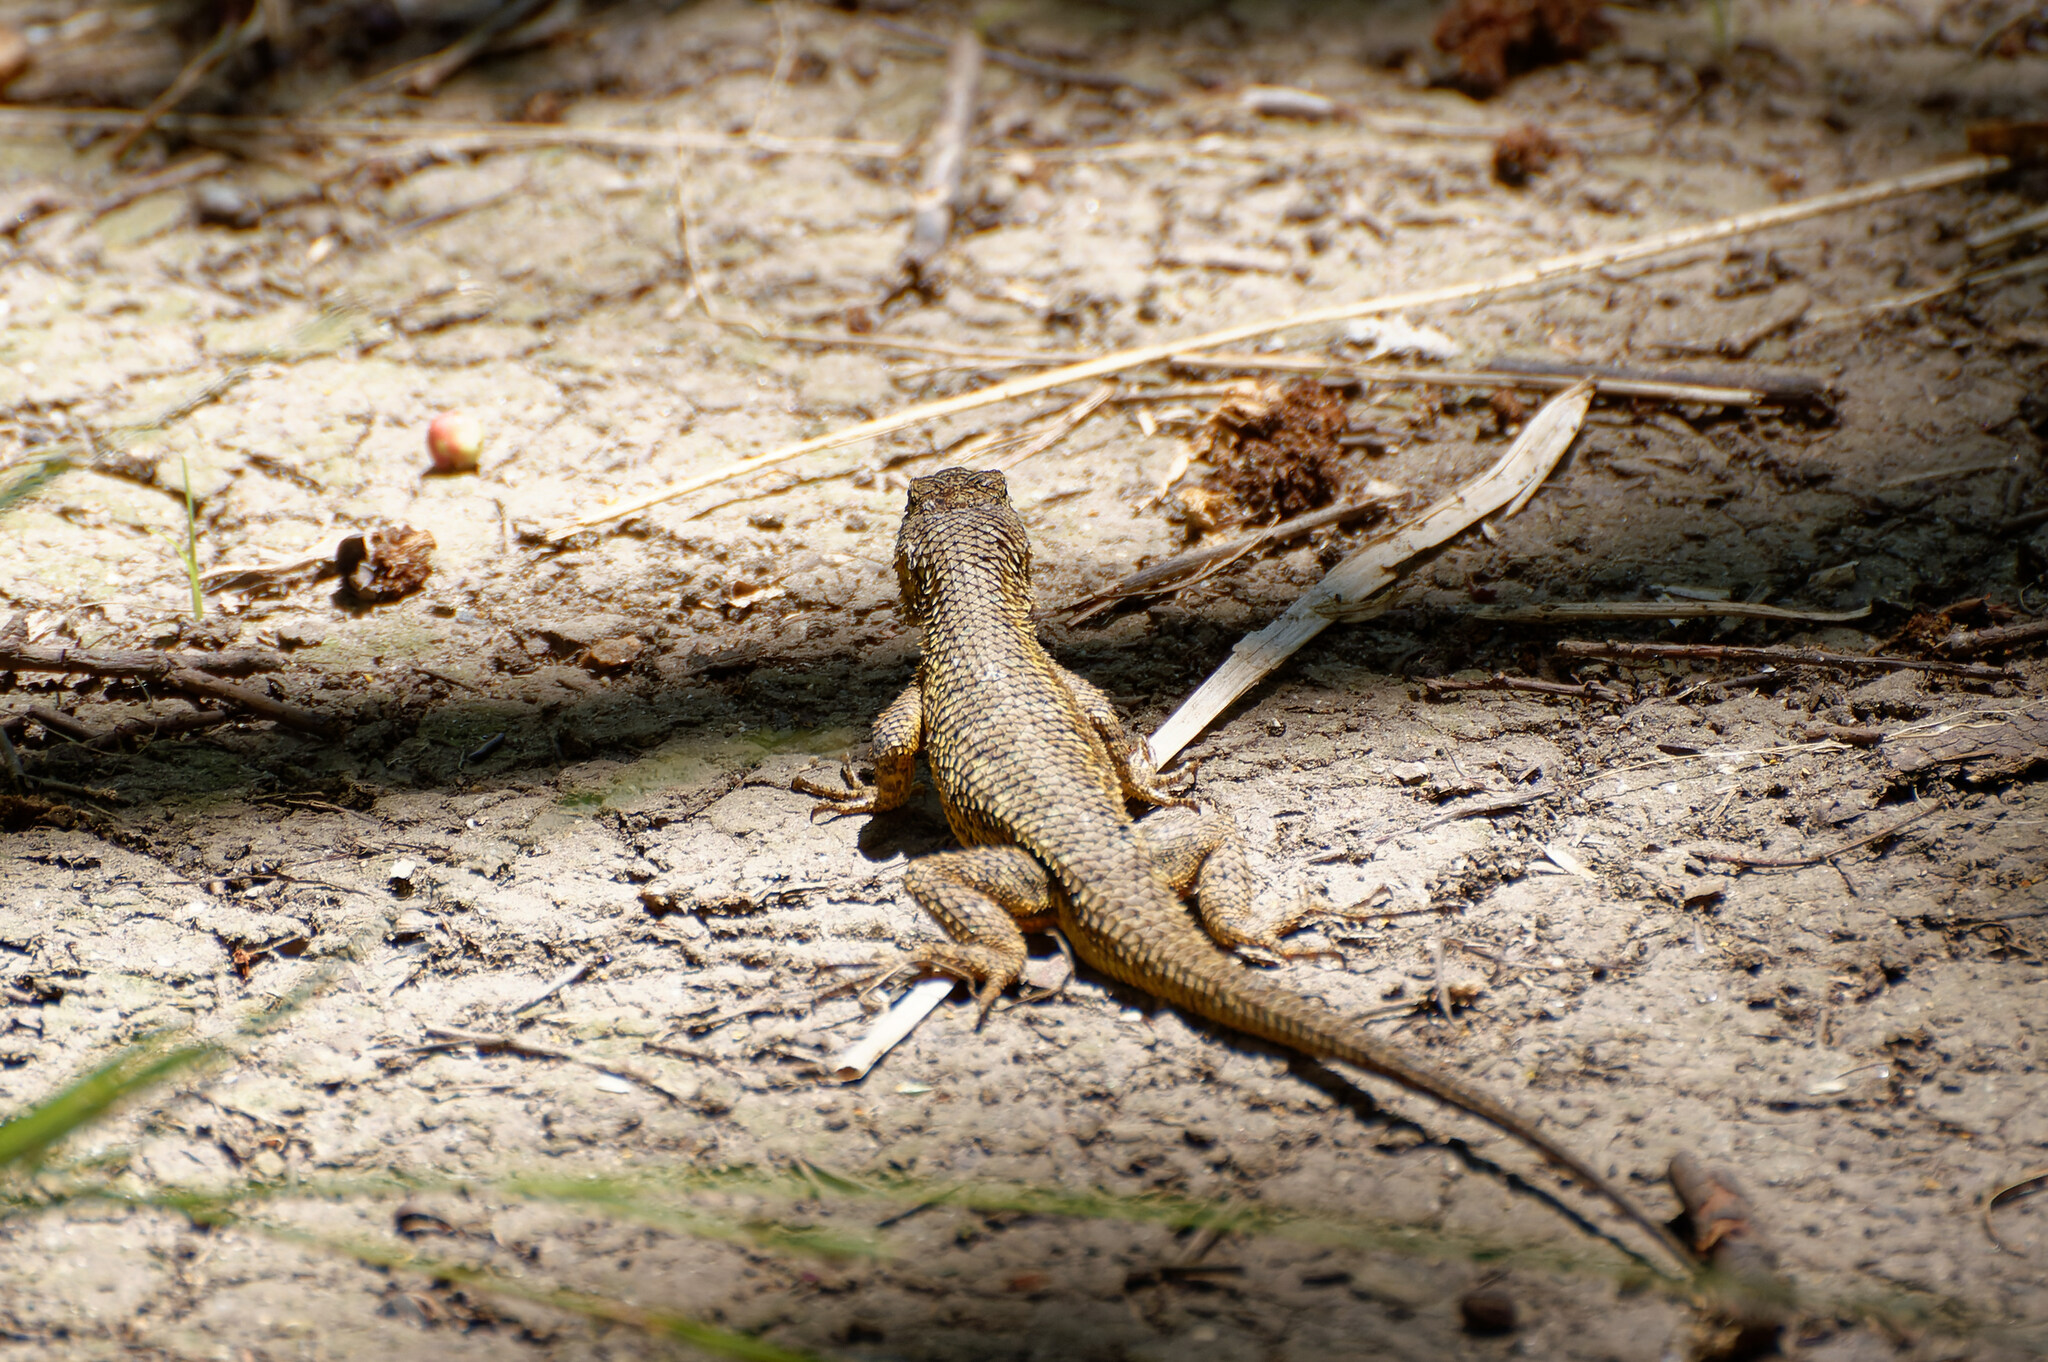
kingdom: Animalia
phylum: Chordata
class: Squamata
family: Phrynosomatidae
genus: Sceloporus
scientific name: Sceloporus occidentalis
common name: Western fence lizard
